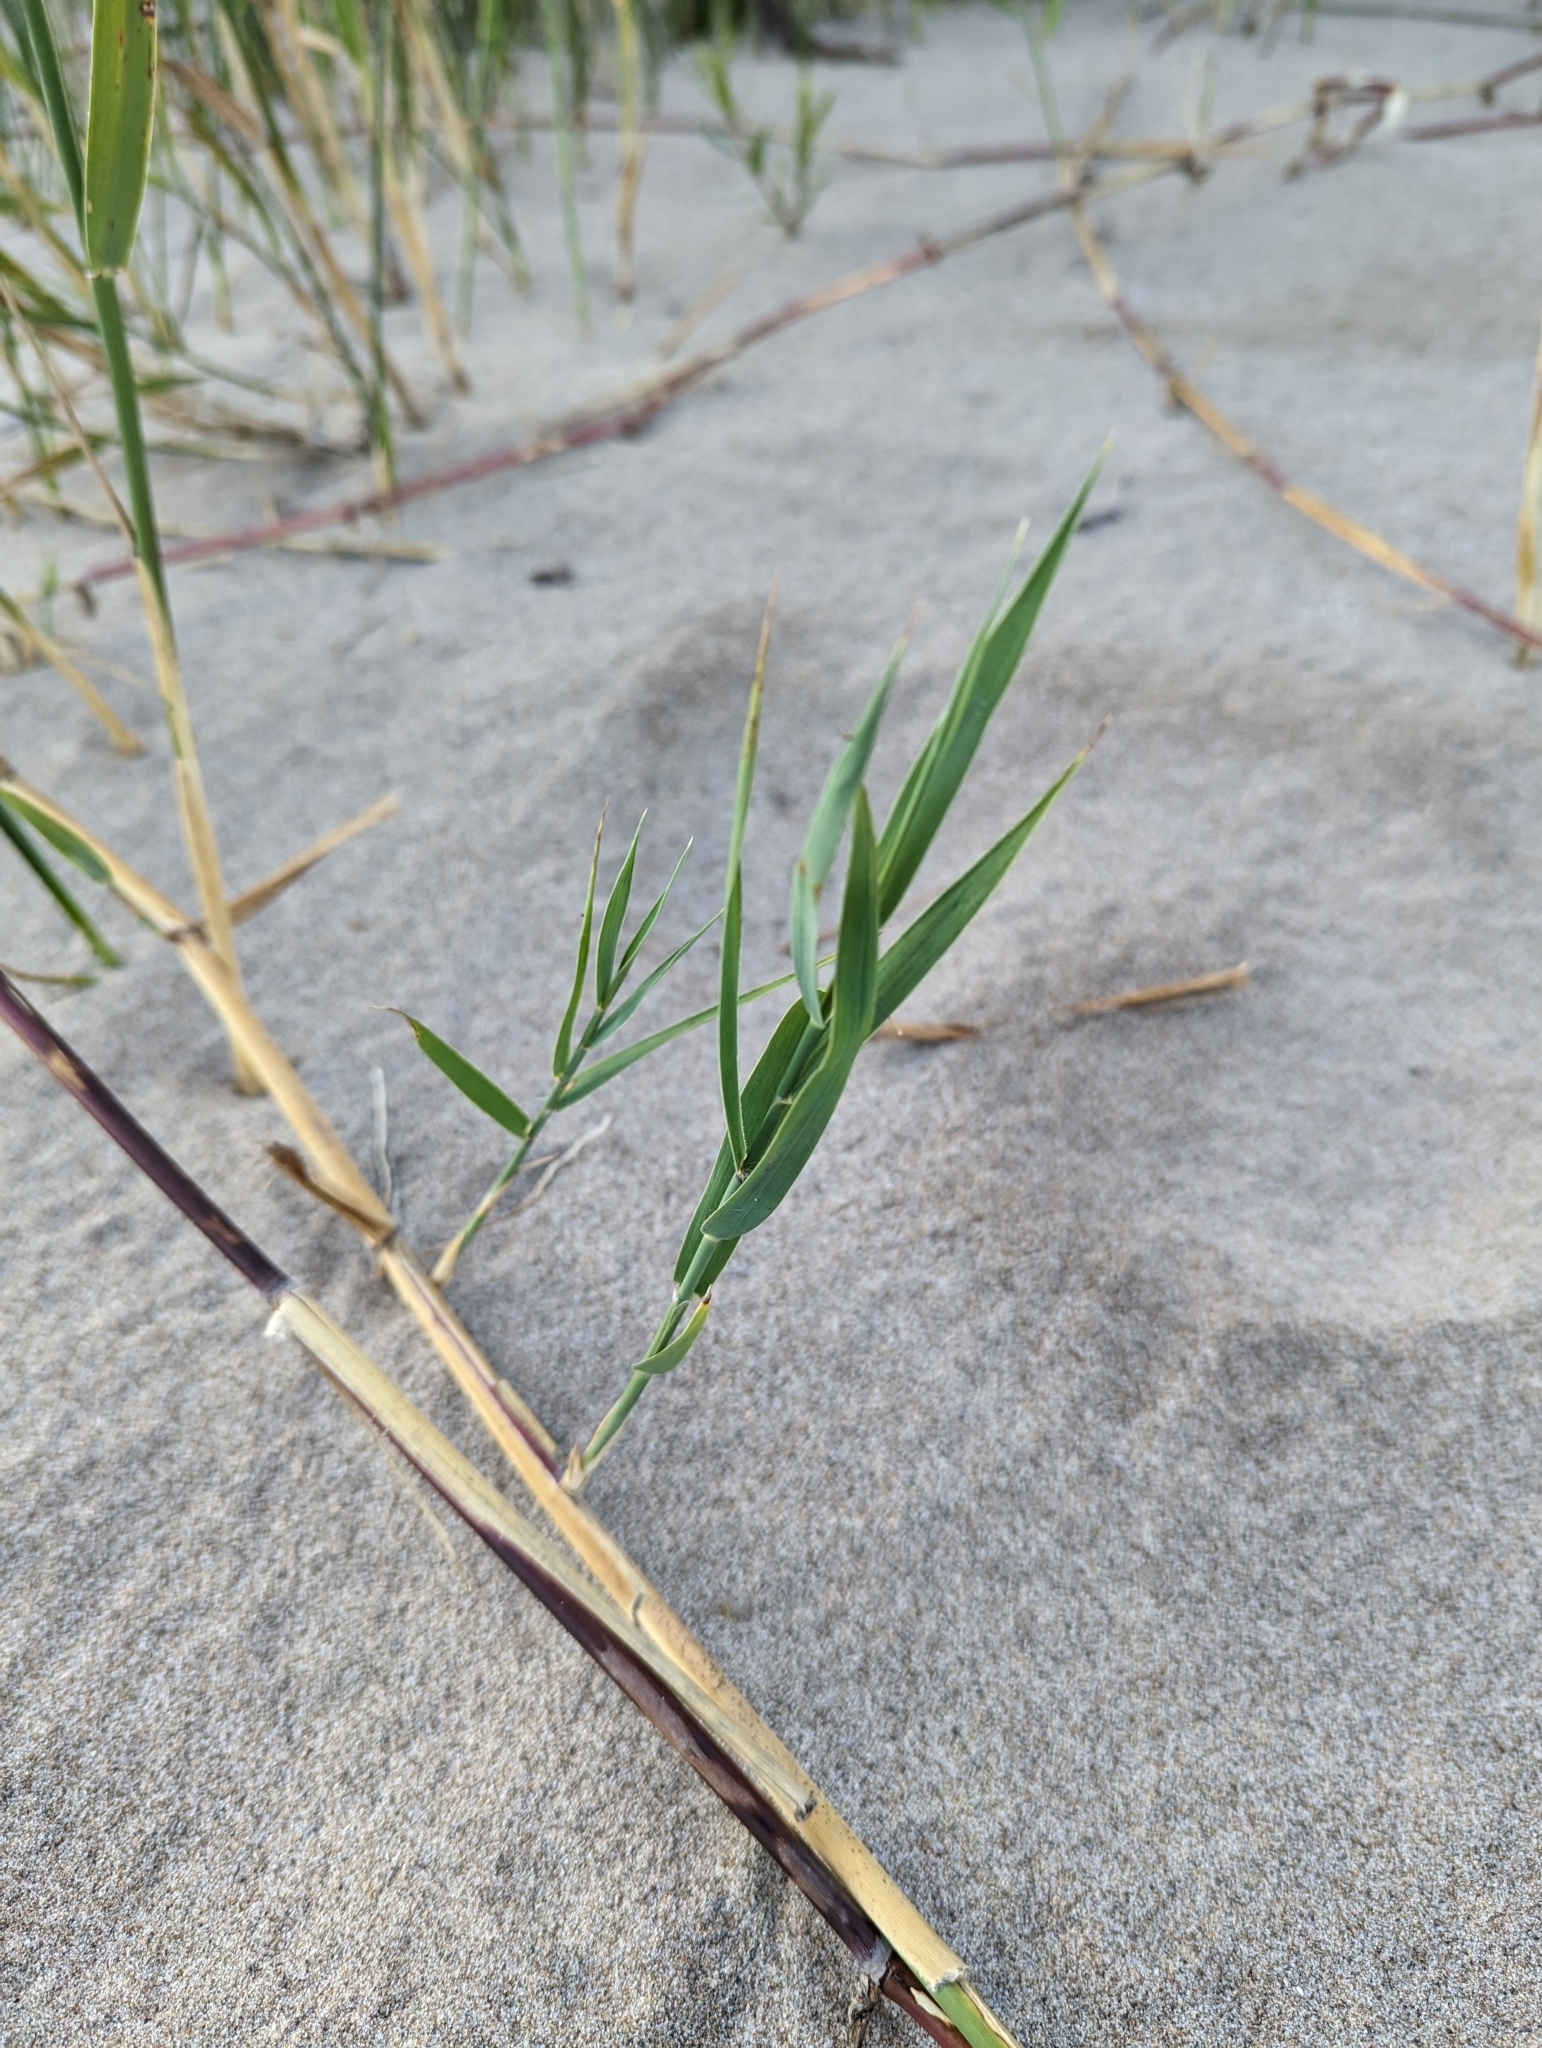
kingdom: Plantae
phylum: Tracheophyta
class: Liliopsida
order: Poales
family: Poaceae
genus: Phragmites
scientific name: Phragmites australis
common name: Common reed
